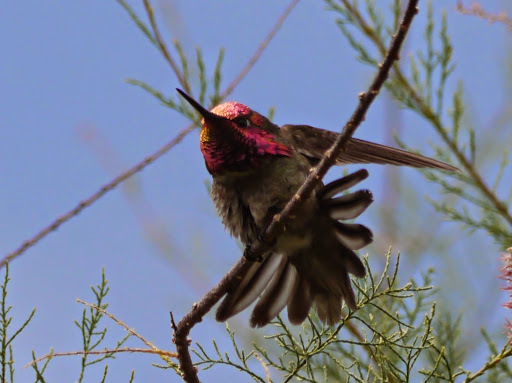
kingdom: Animalia
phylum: Chordata
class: Aves
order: Apodiformes
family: Trochilidae
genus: Calypte
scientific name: Calypte anna
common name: Anna's hummingbird
